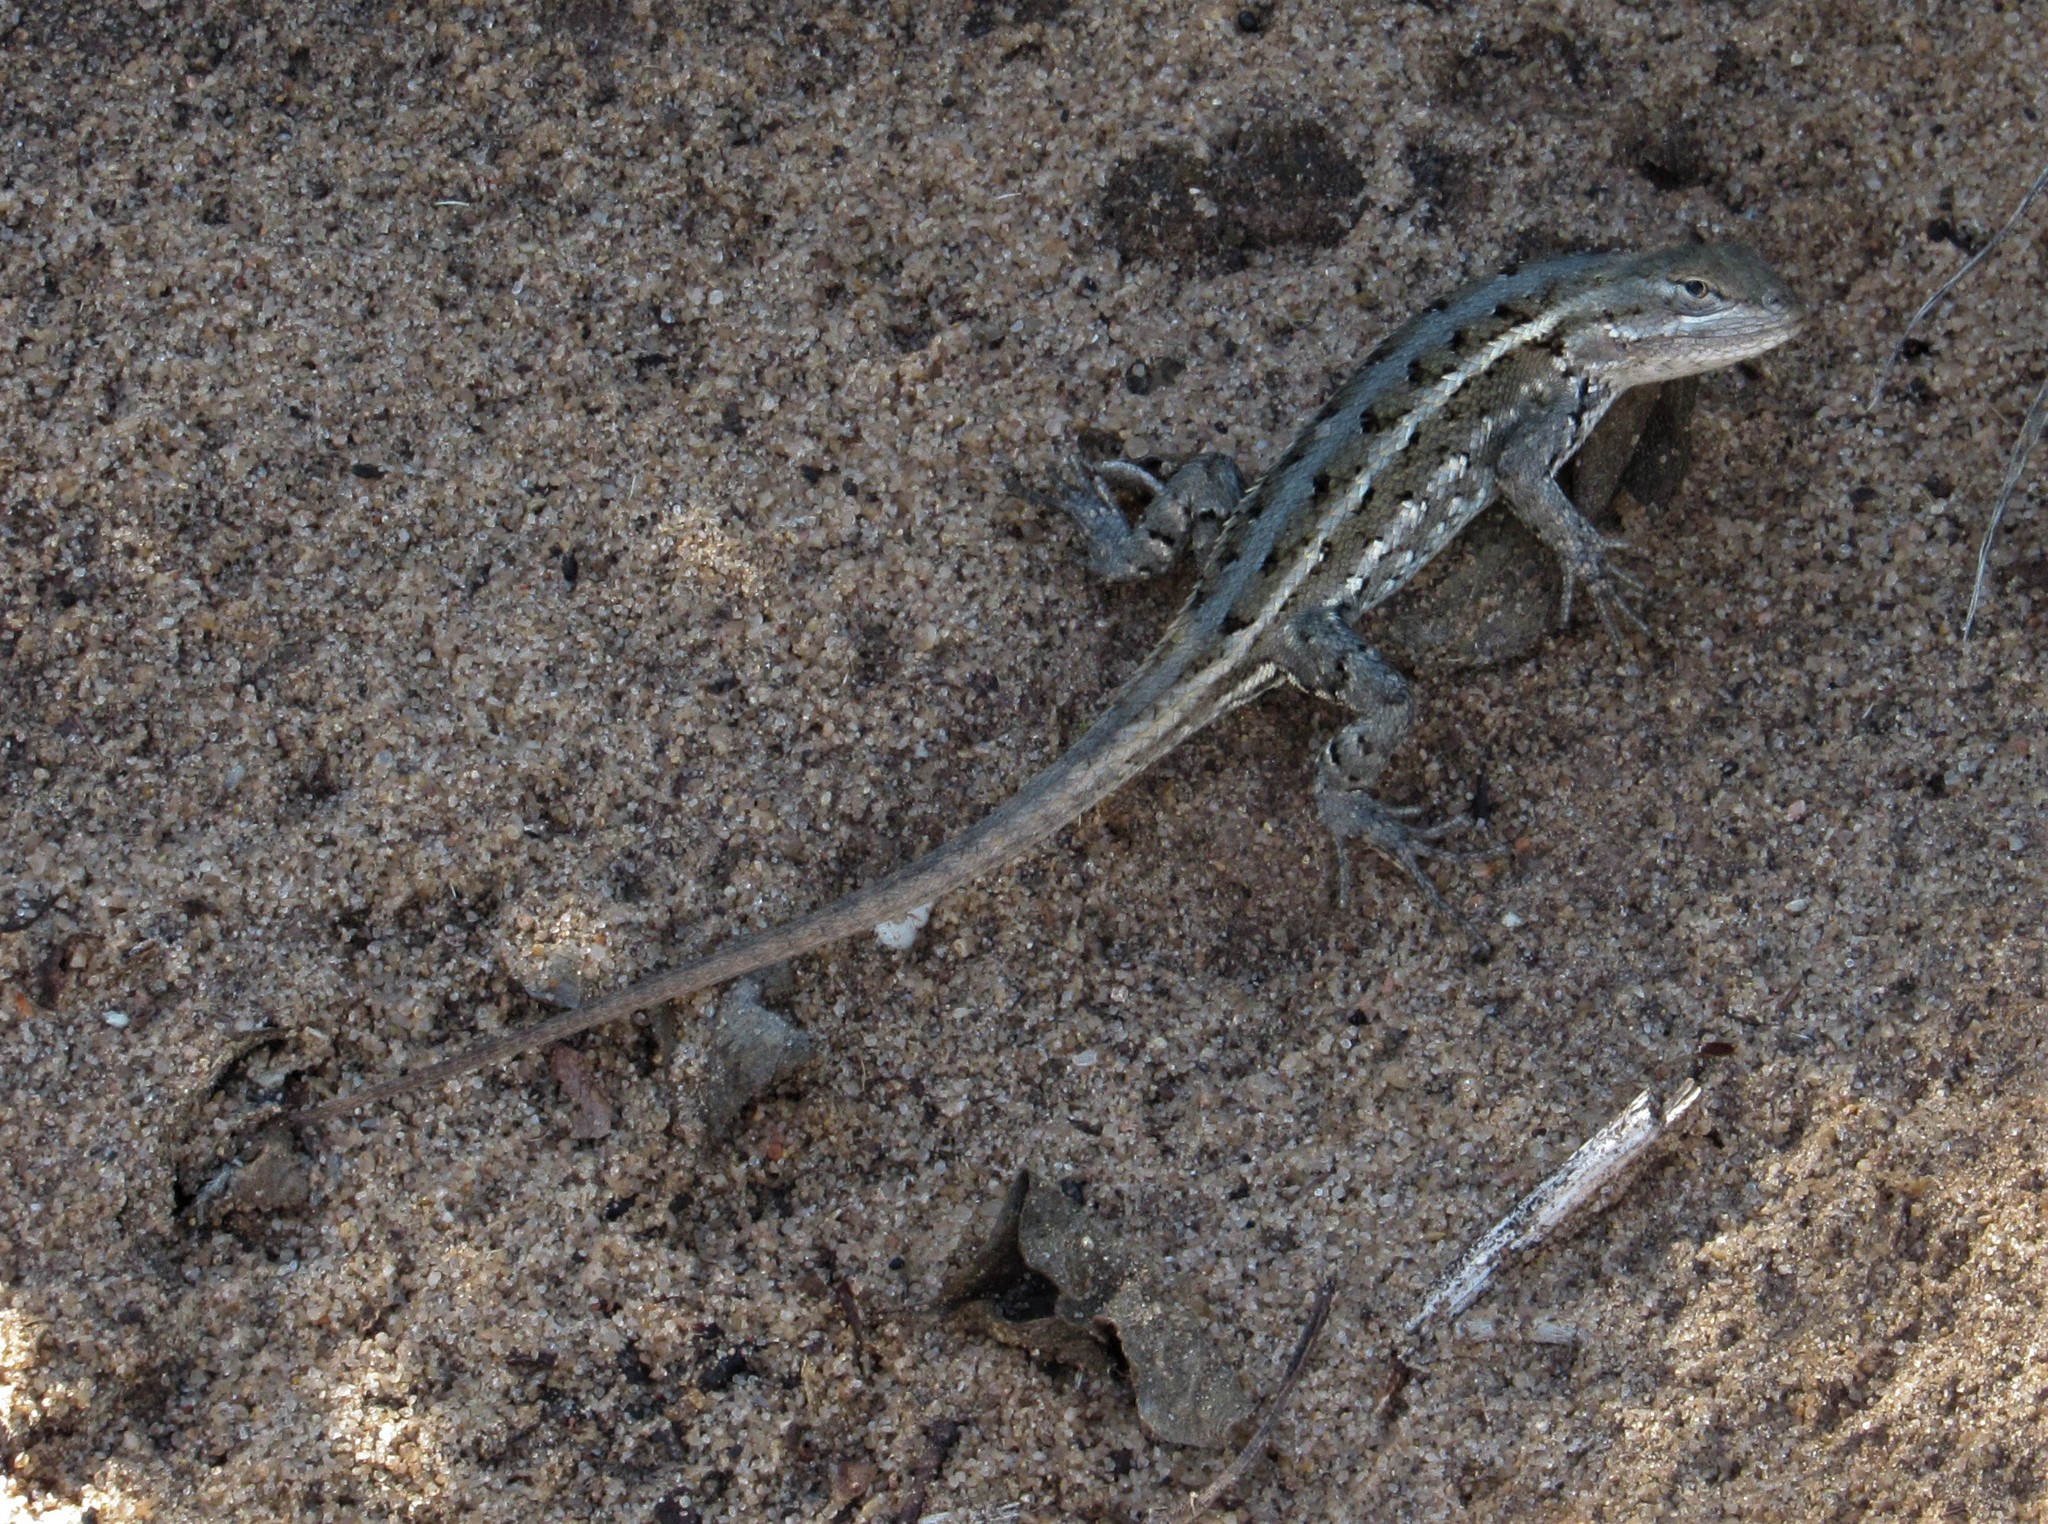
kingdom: Animalia
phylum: Chordata
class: Squamata
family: Phrynosomatidae
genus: Sceloporus
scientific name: Sceloporus consobrinus
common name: Southern prairie lizard
